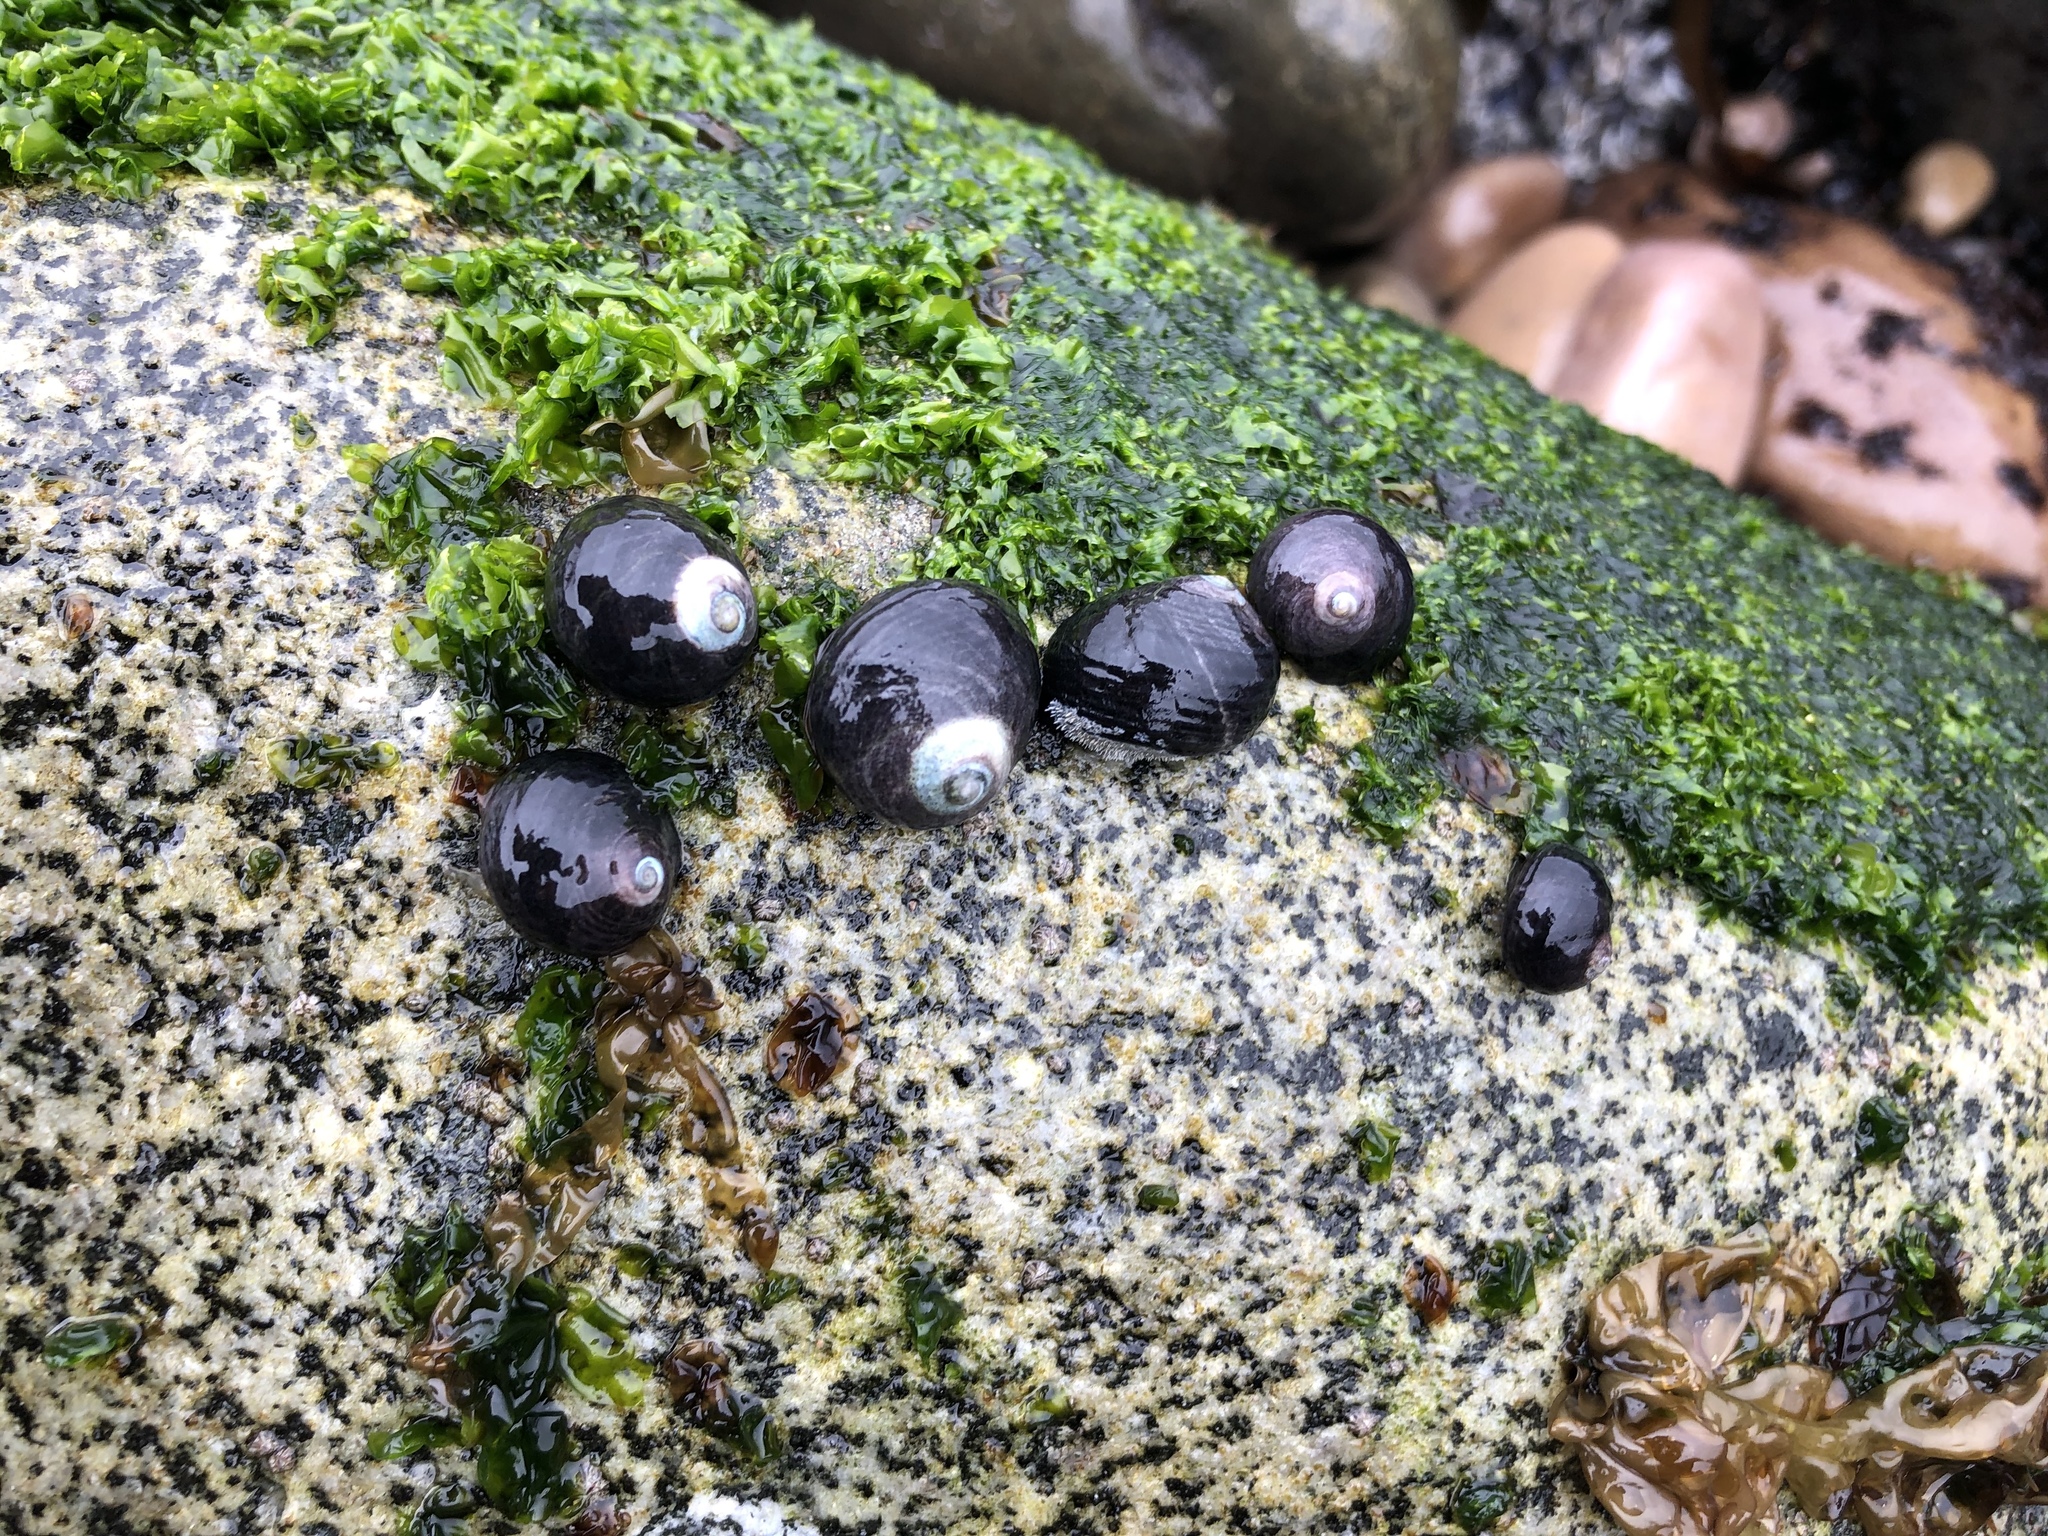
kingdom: Animalia
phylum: Mollusca
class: Gastropoda
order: Trochida
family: Turbinidae
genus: Prisogaster
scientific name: Prisogaster niger
